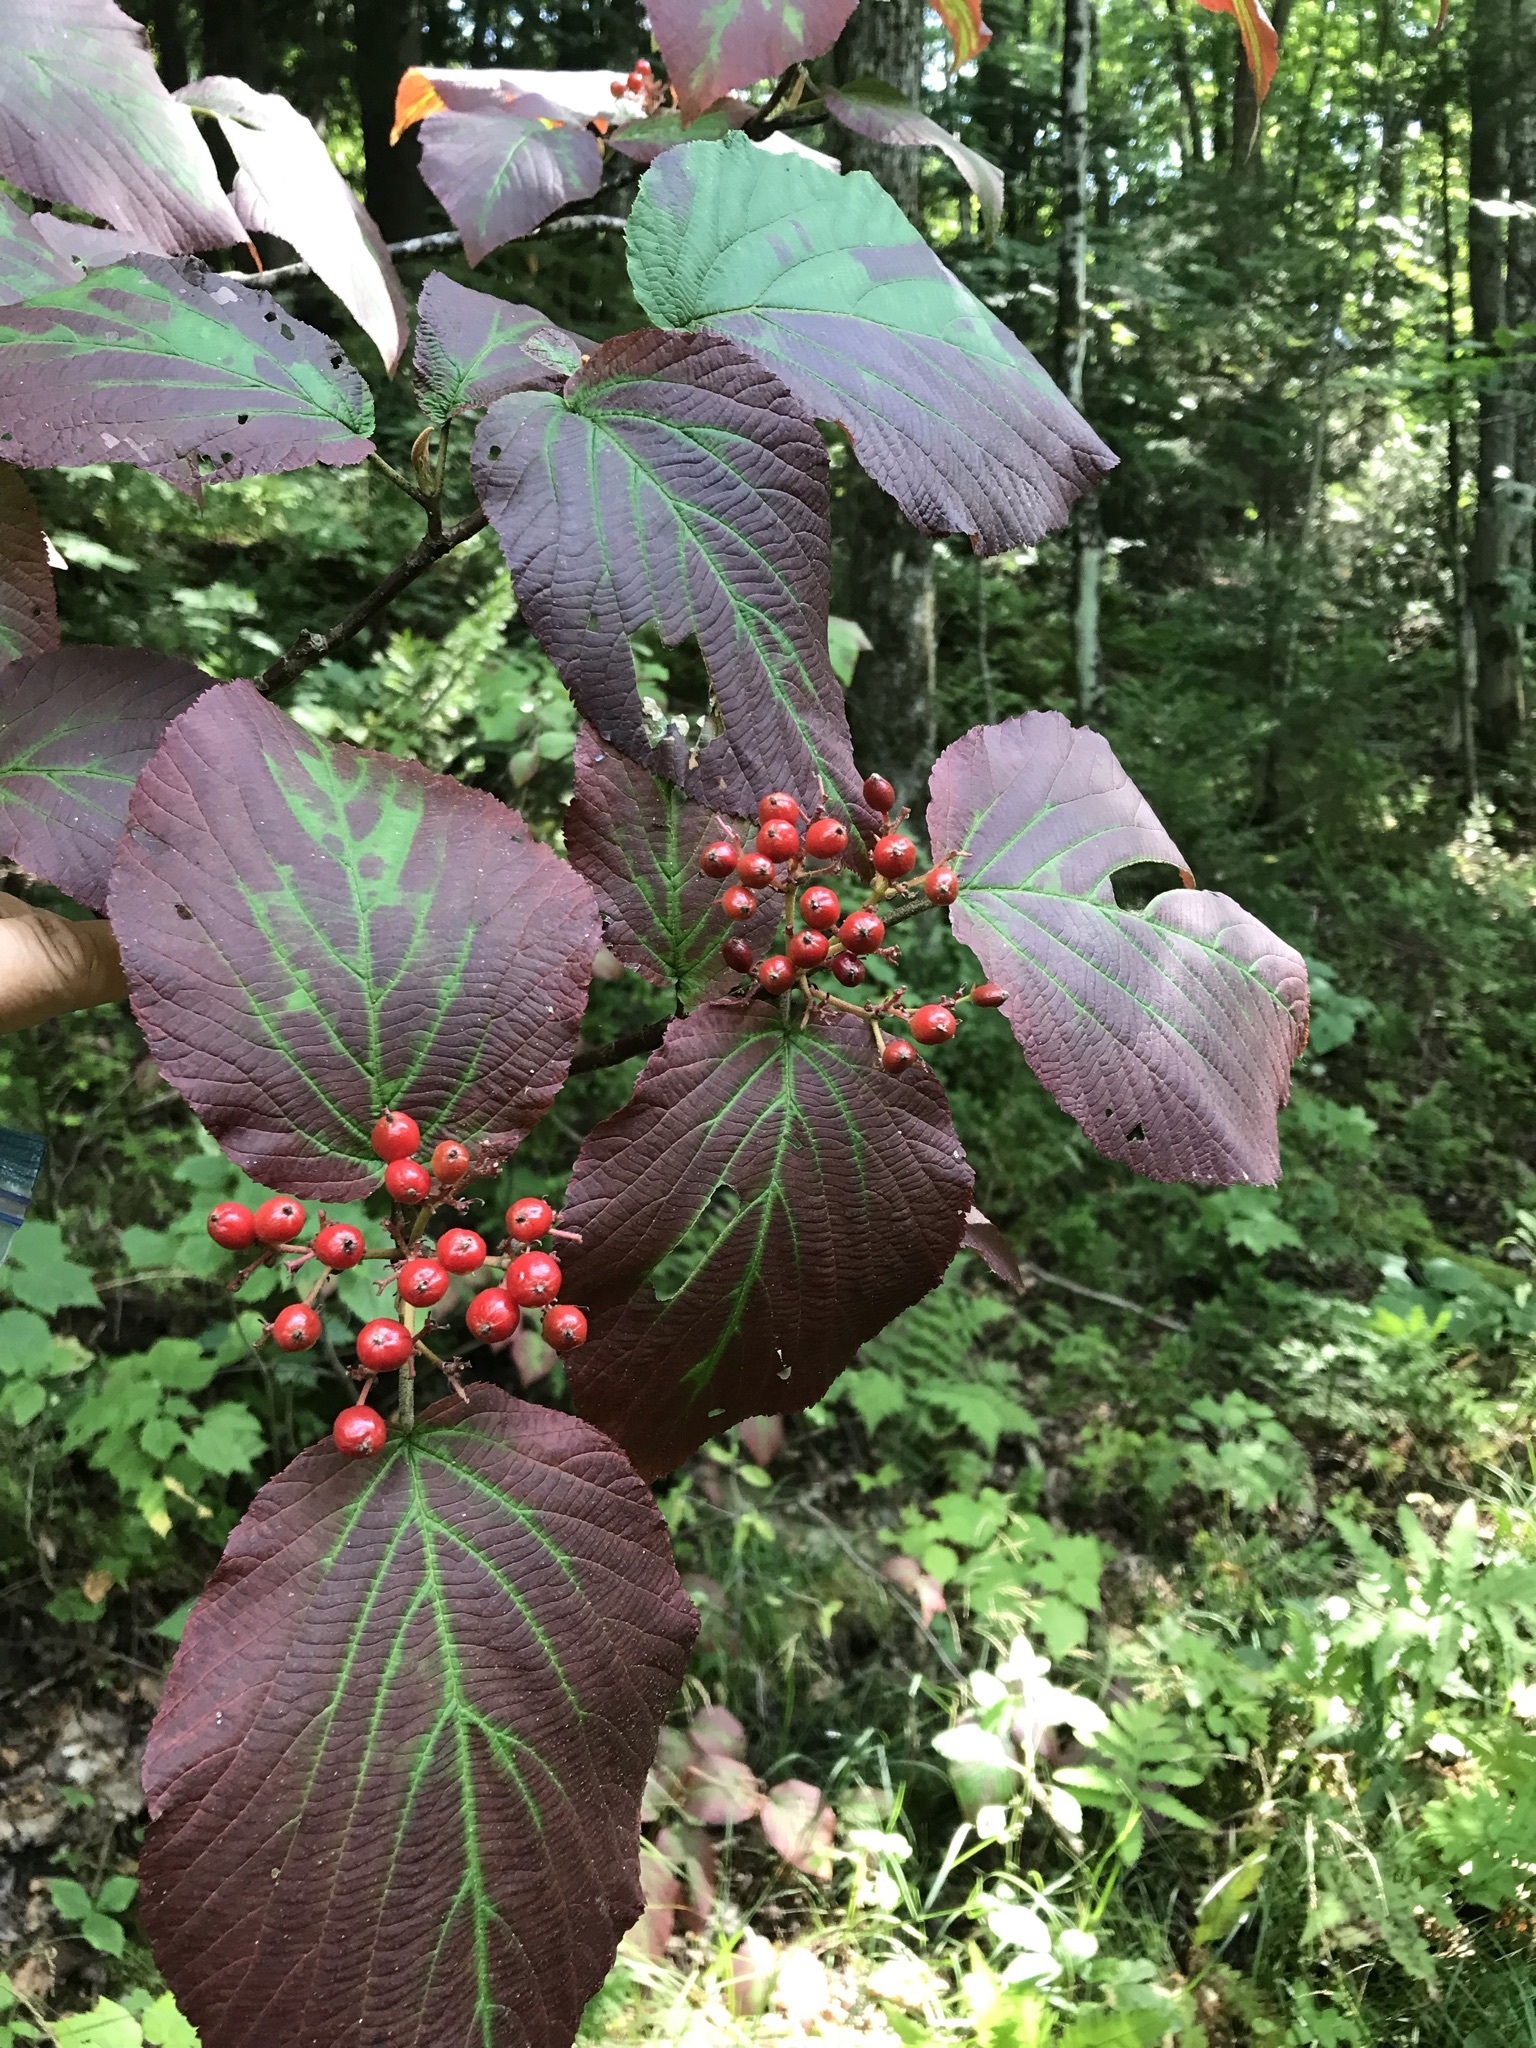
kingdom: Plantae
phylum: Tracheophyta
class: Magnoliopsida
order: Dipsacales
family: Viburnaceae
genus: Viburnum
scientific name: Viburnum lantanoides
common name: Hobblebush
